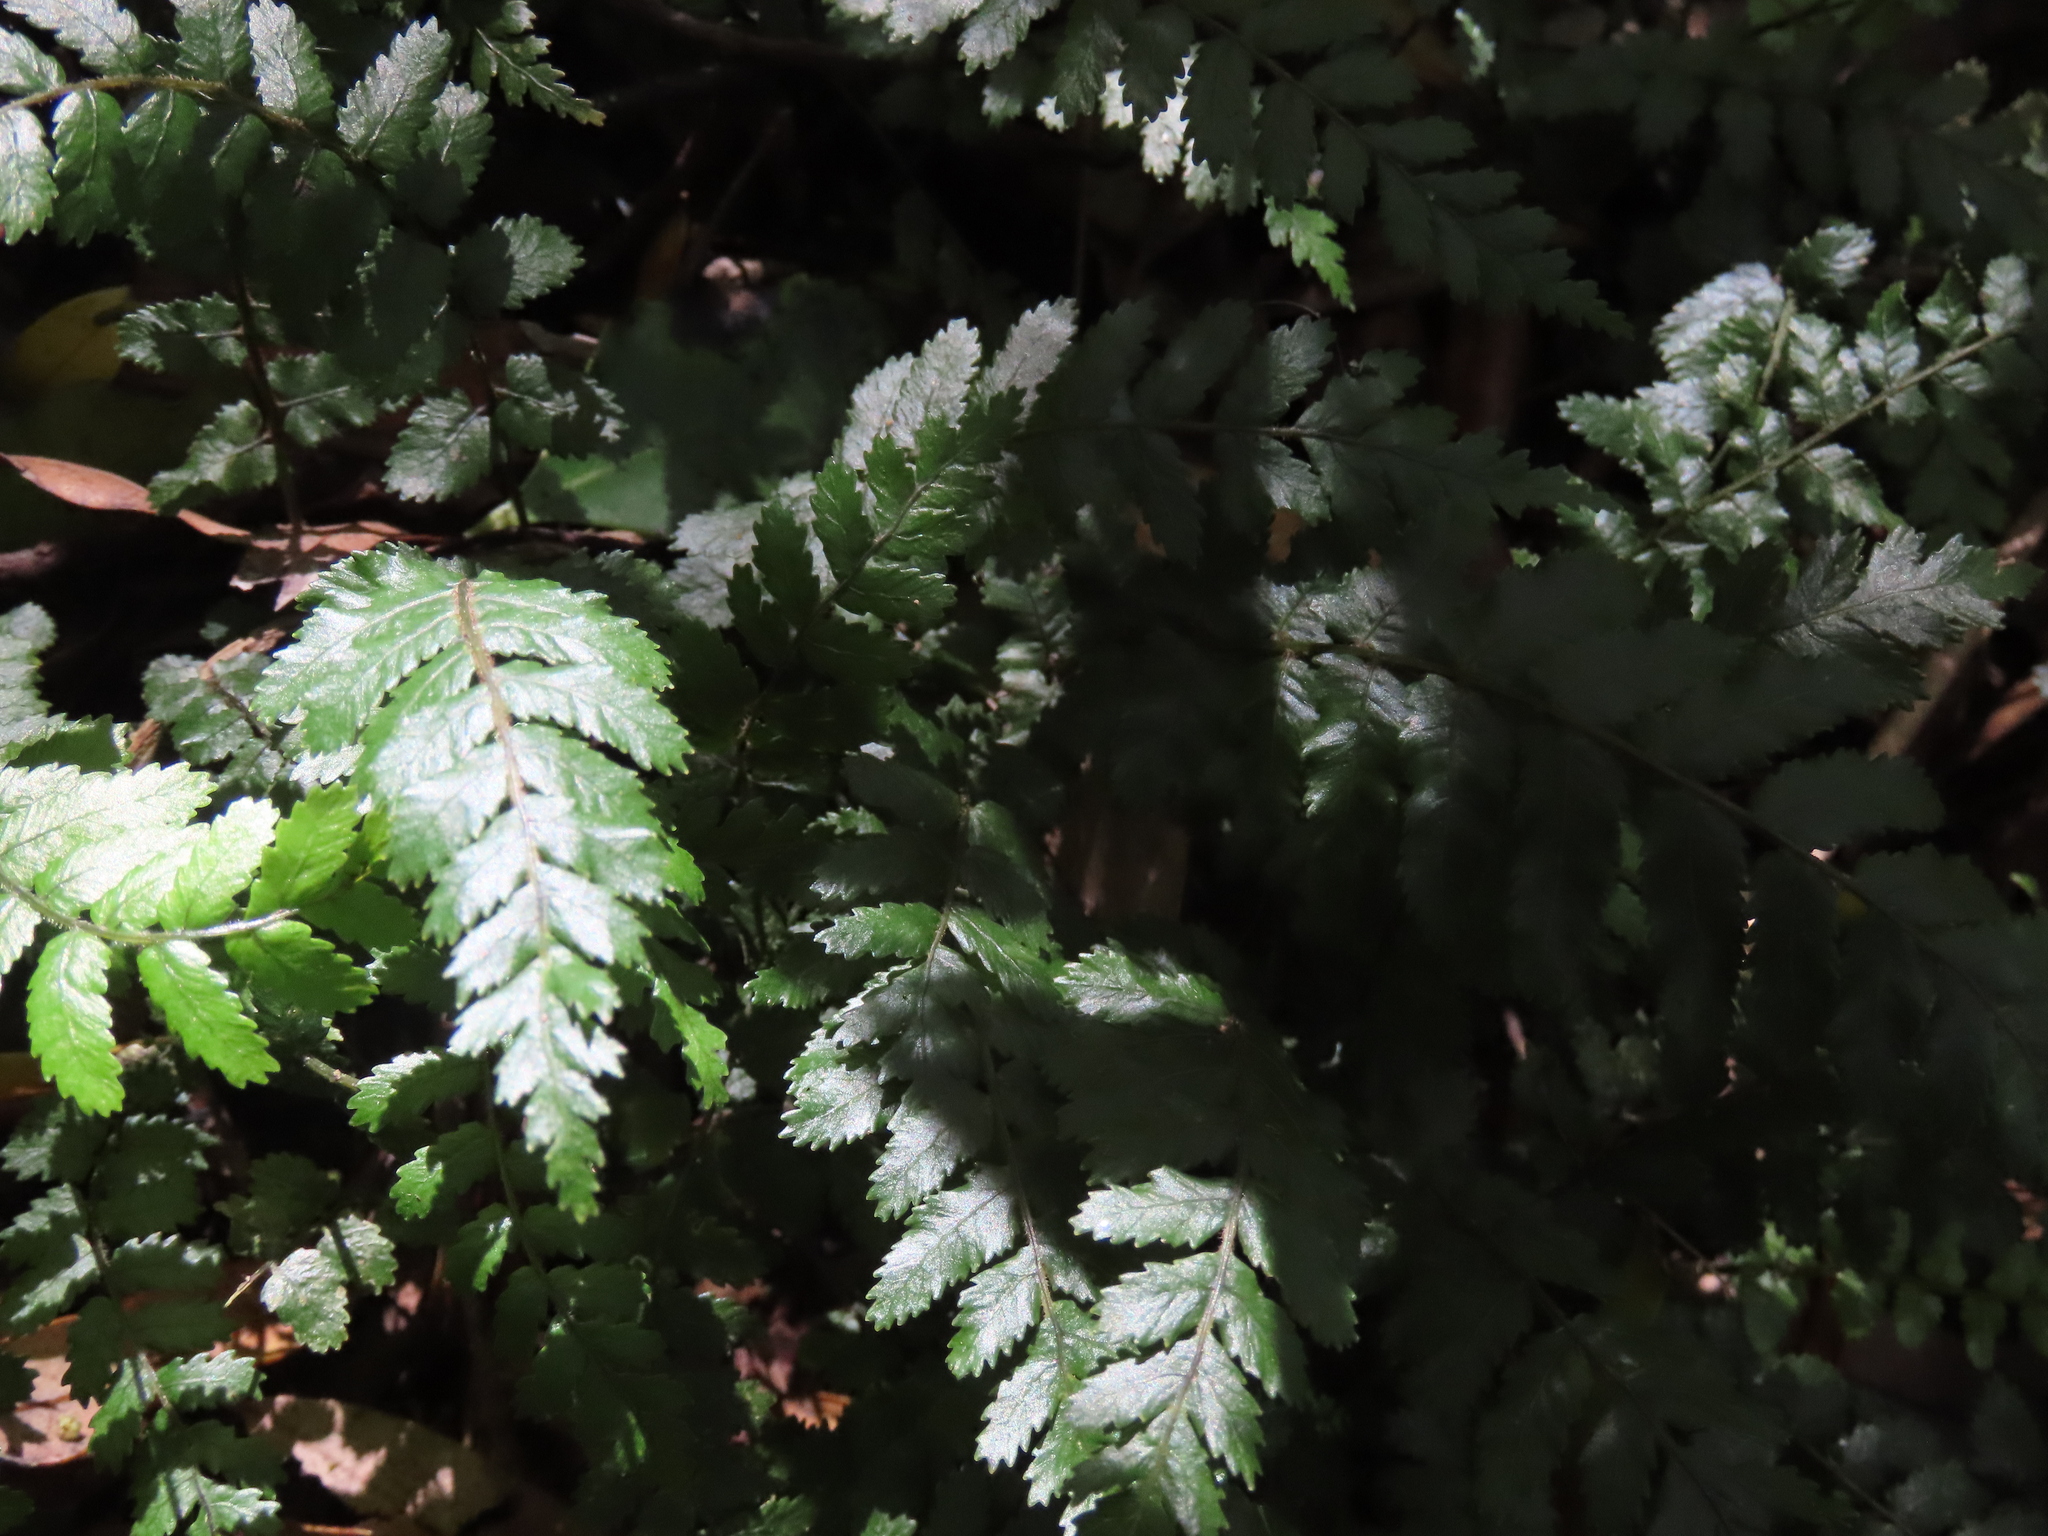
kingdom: Plantae
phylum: Tracheophyta
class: Polypodiopsida
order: Polypodiales
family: Blechnaceae
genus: Icarus
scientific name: Icarus filiformis
